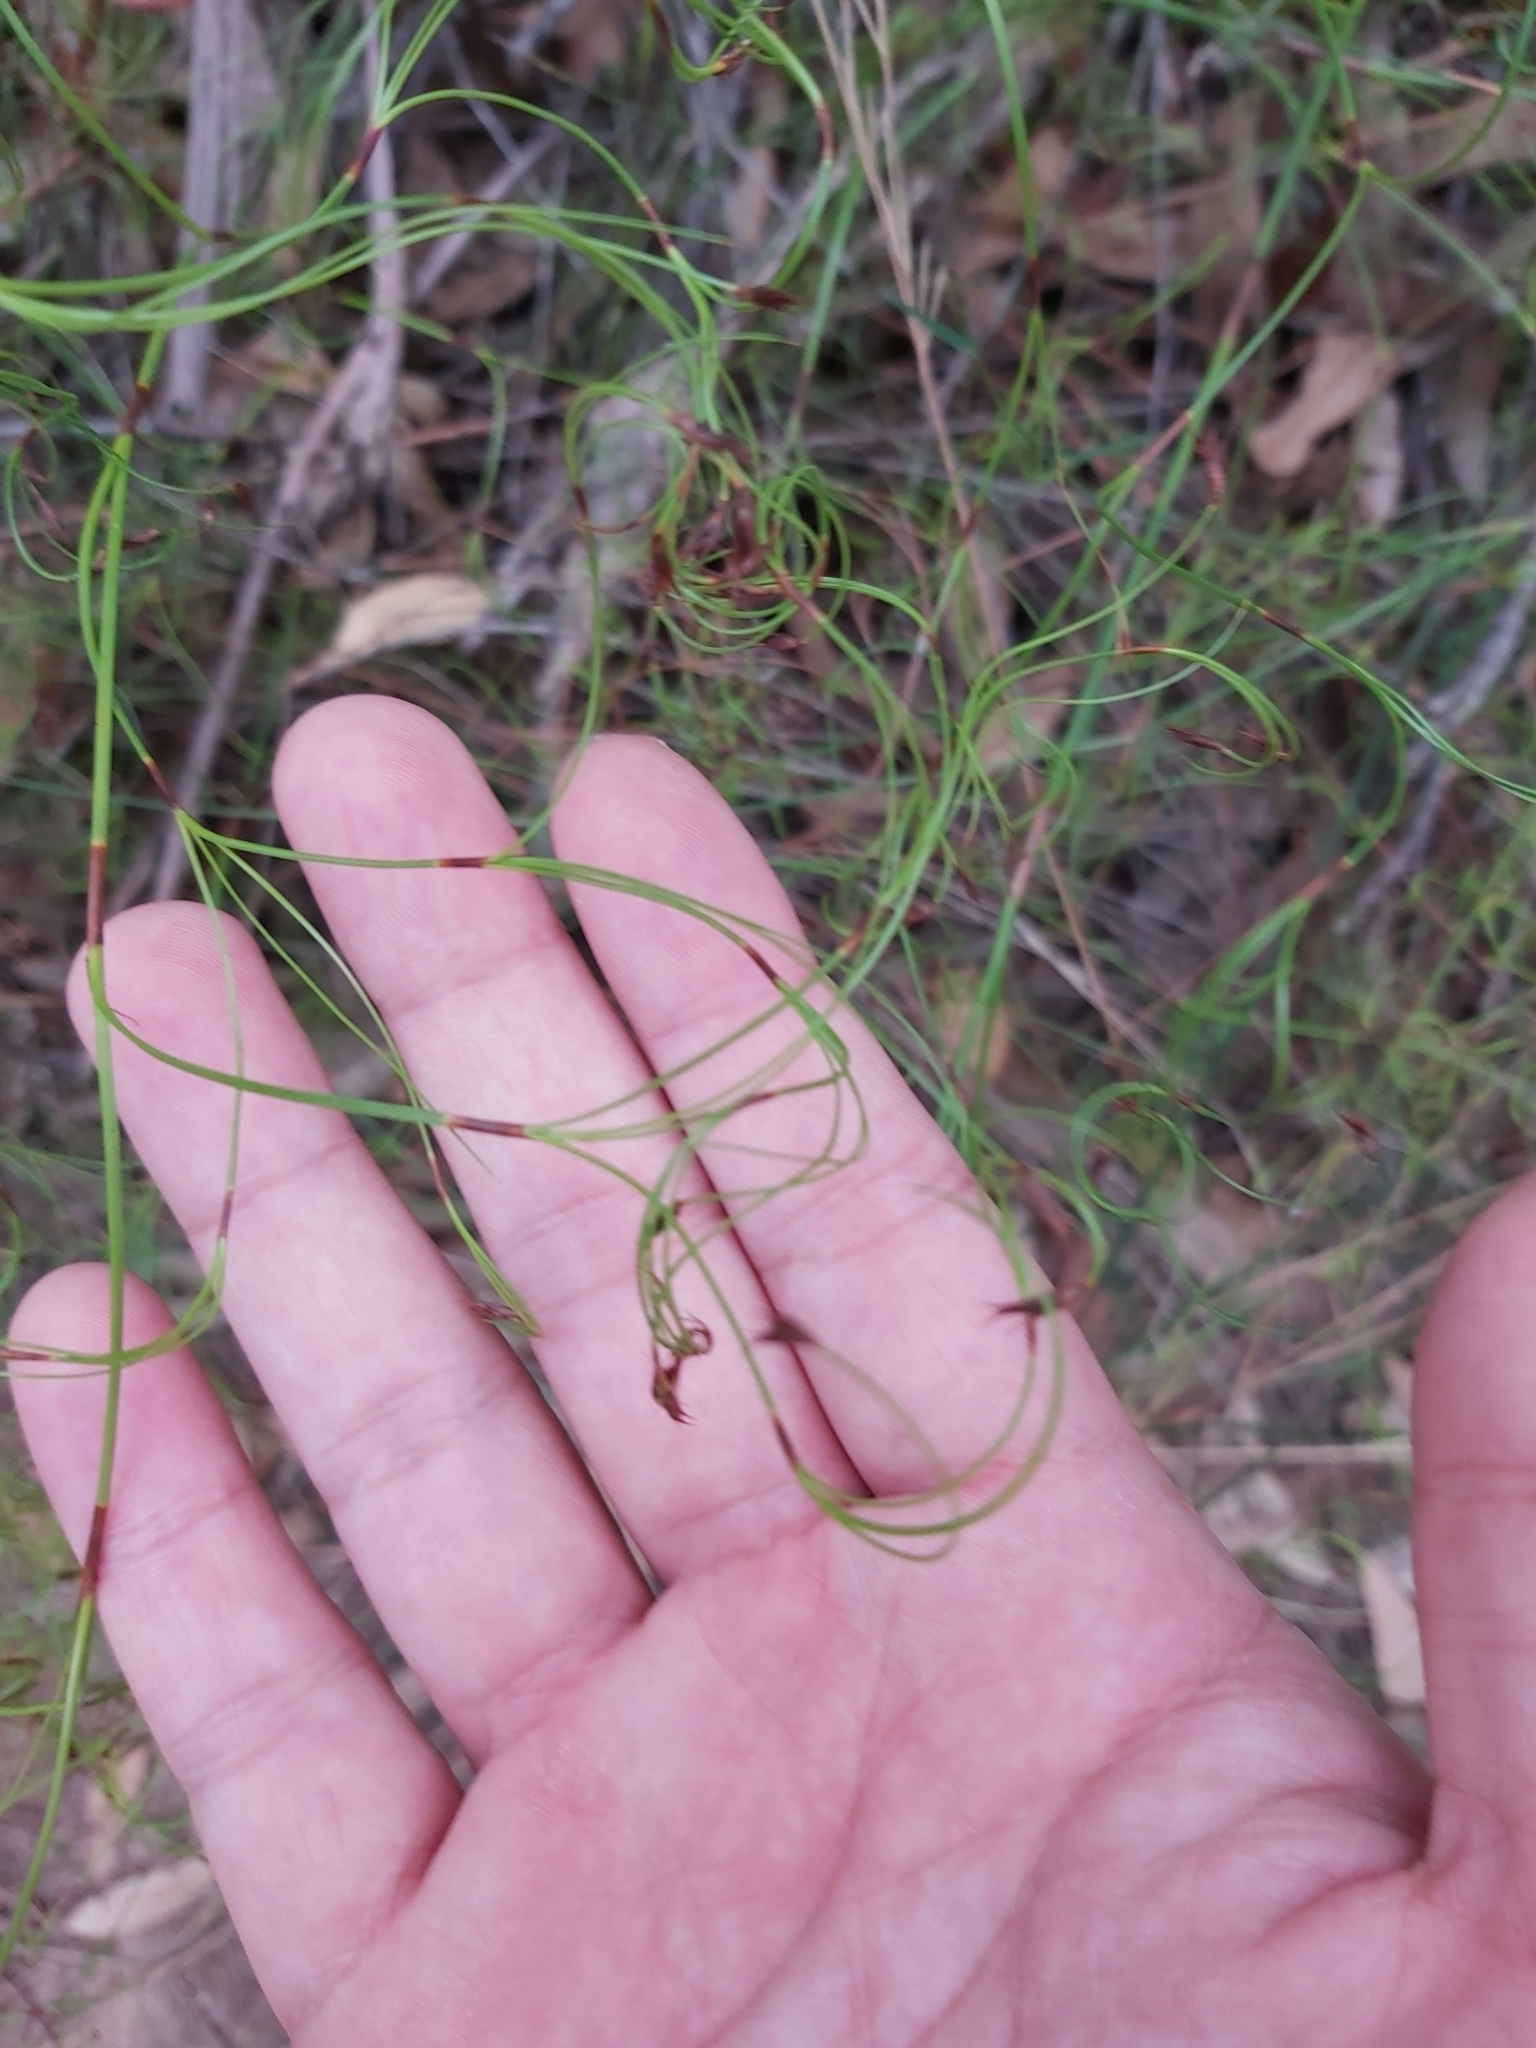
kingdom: Plantae
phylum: Tracheophyta
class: Liliopsida
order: Poales
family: Cyperaceae
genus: Caustis
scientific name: Caustis flexuosa
